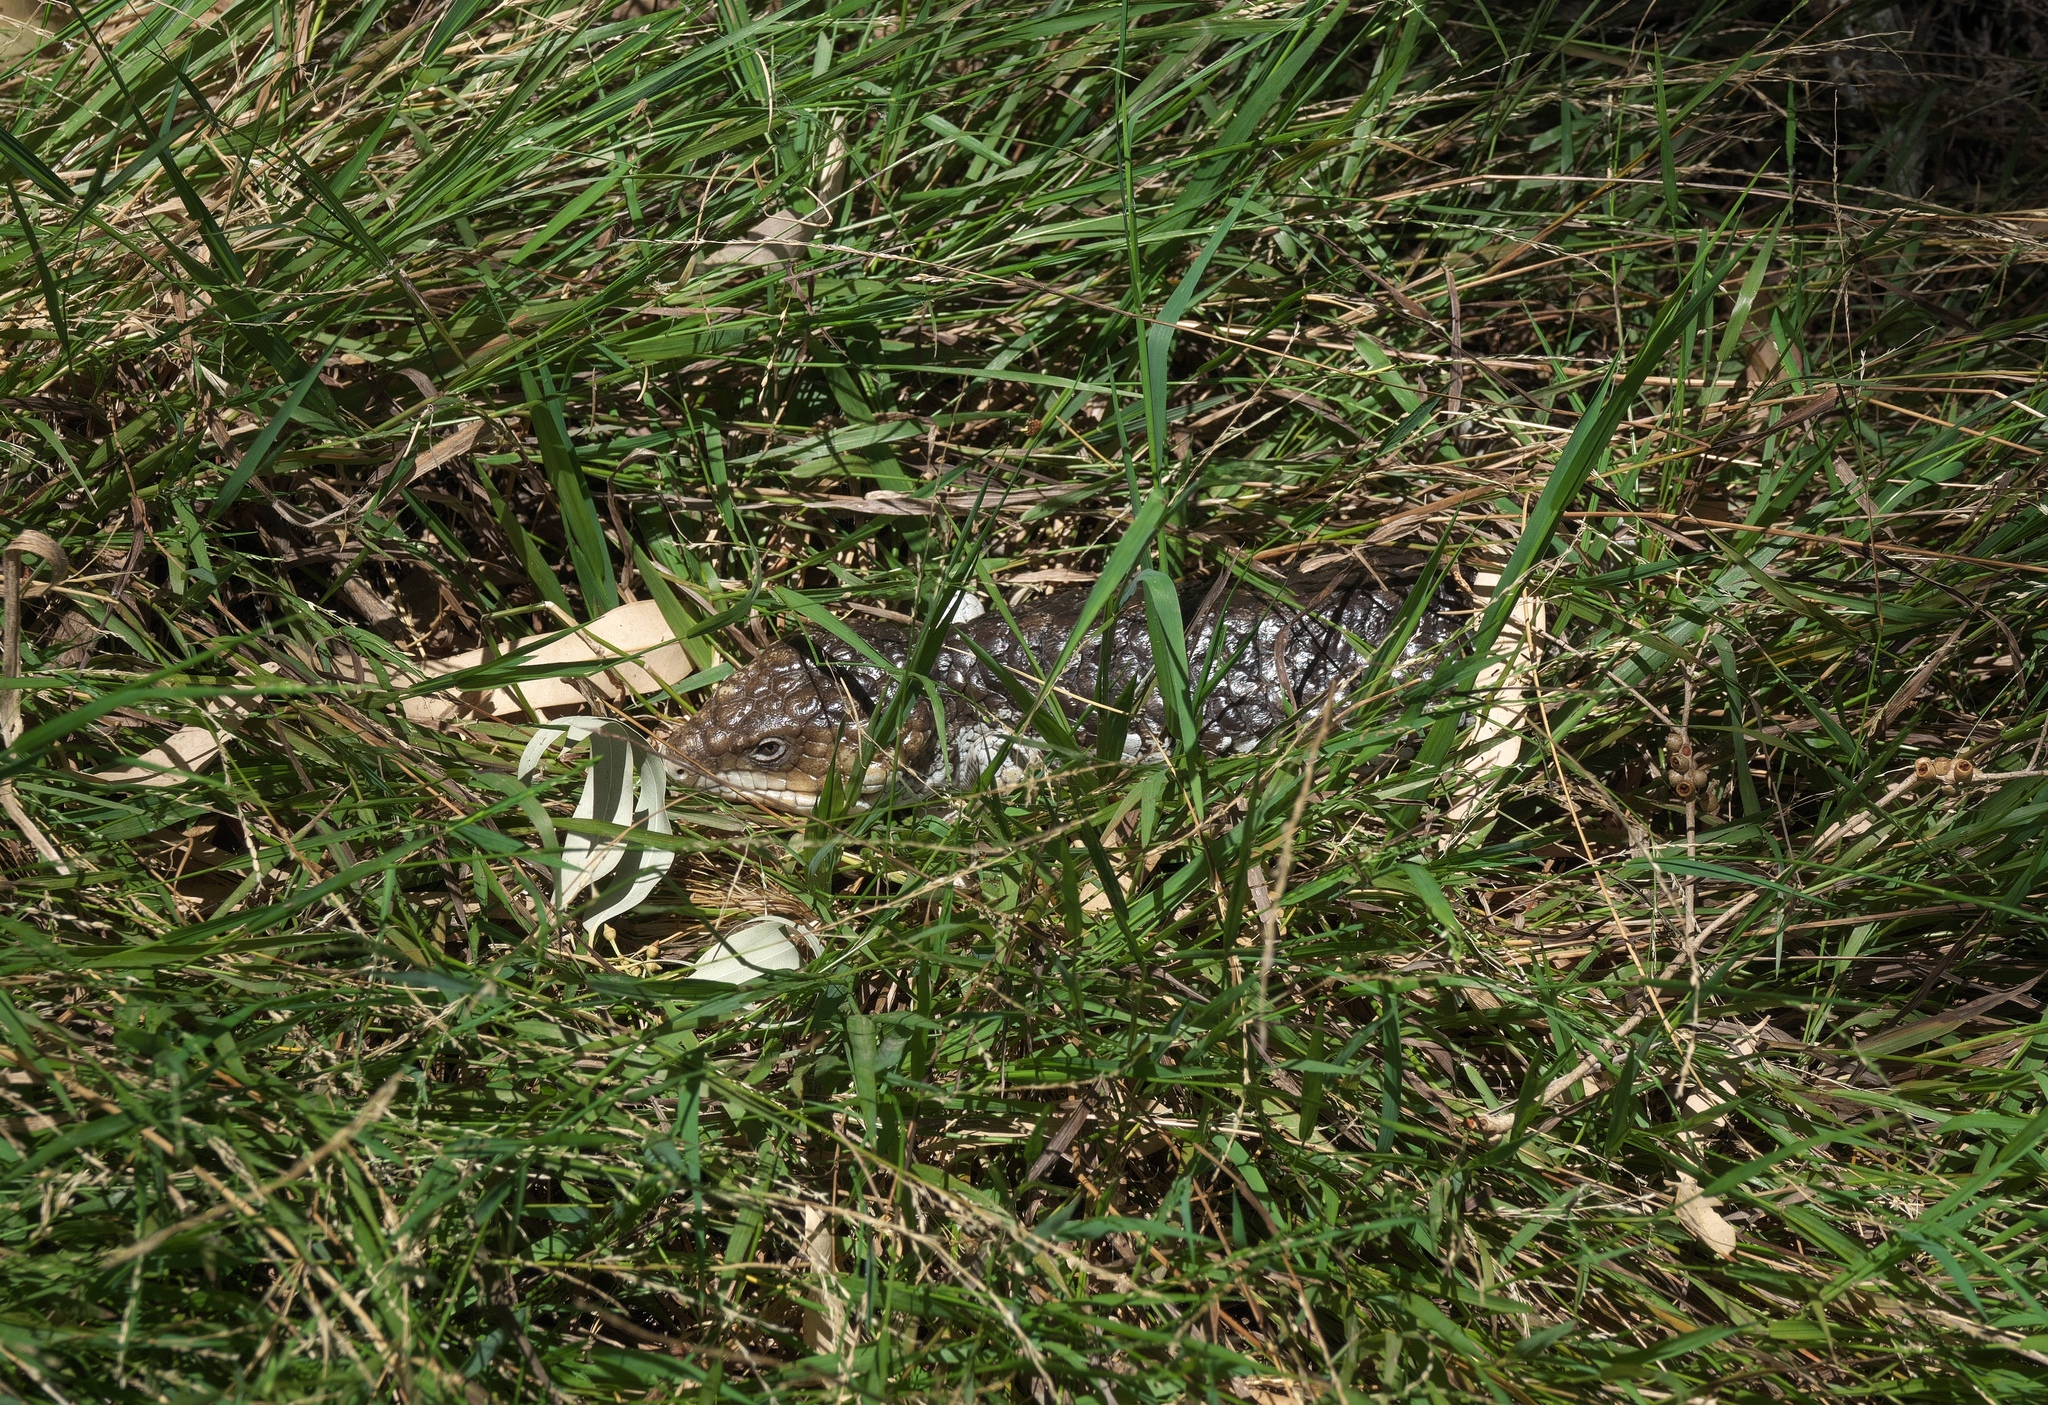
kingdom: Animalia
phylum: Chordata
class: Squamata
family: Scincidae
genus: Tiliqua
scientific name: Tiliqua rugosa
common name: Pinecone lizard
